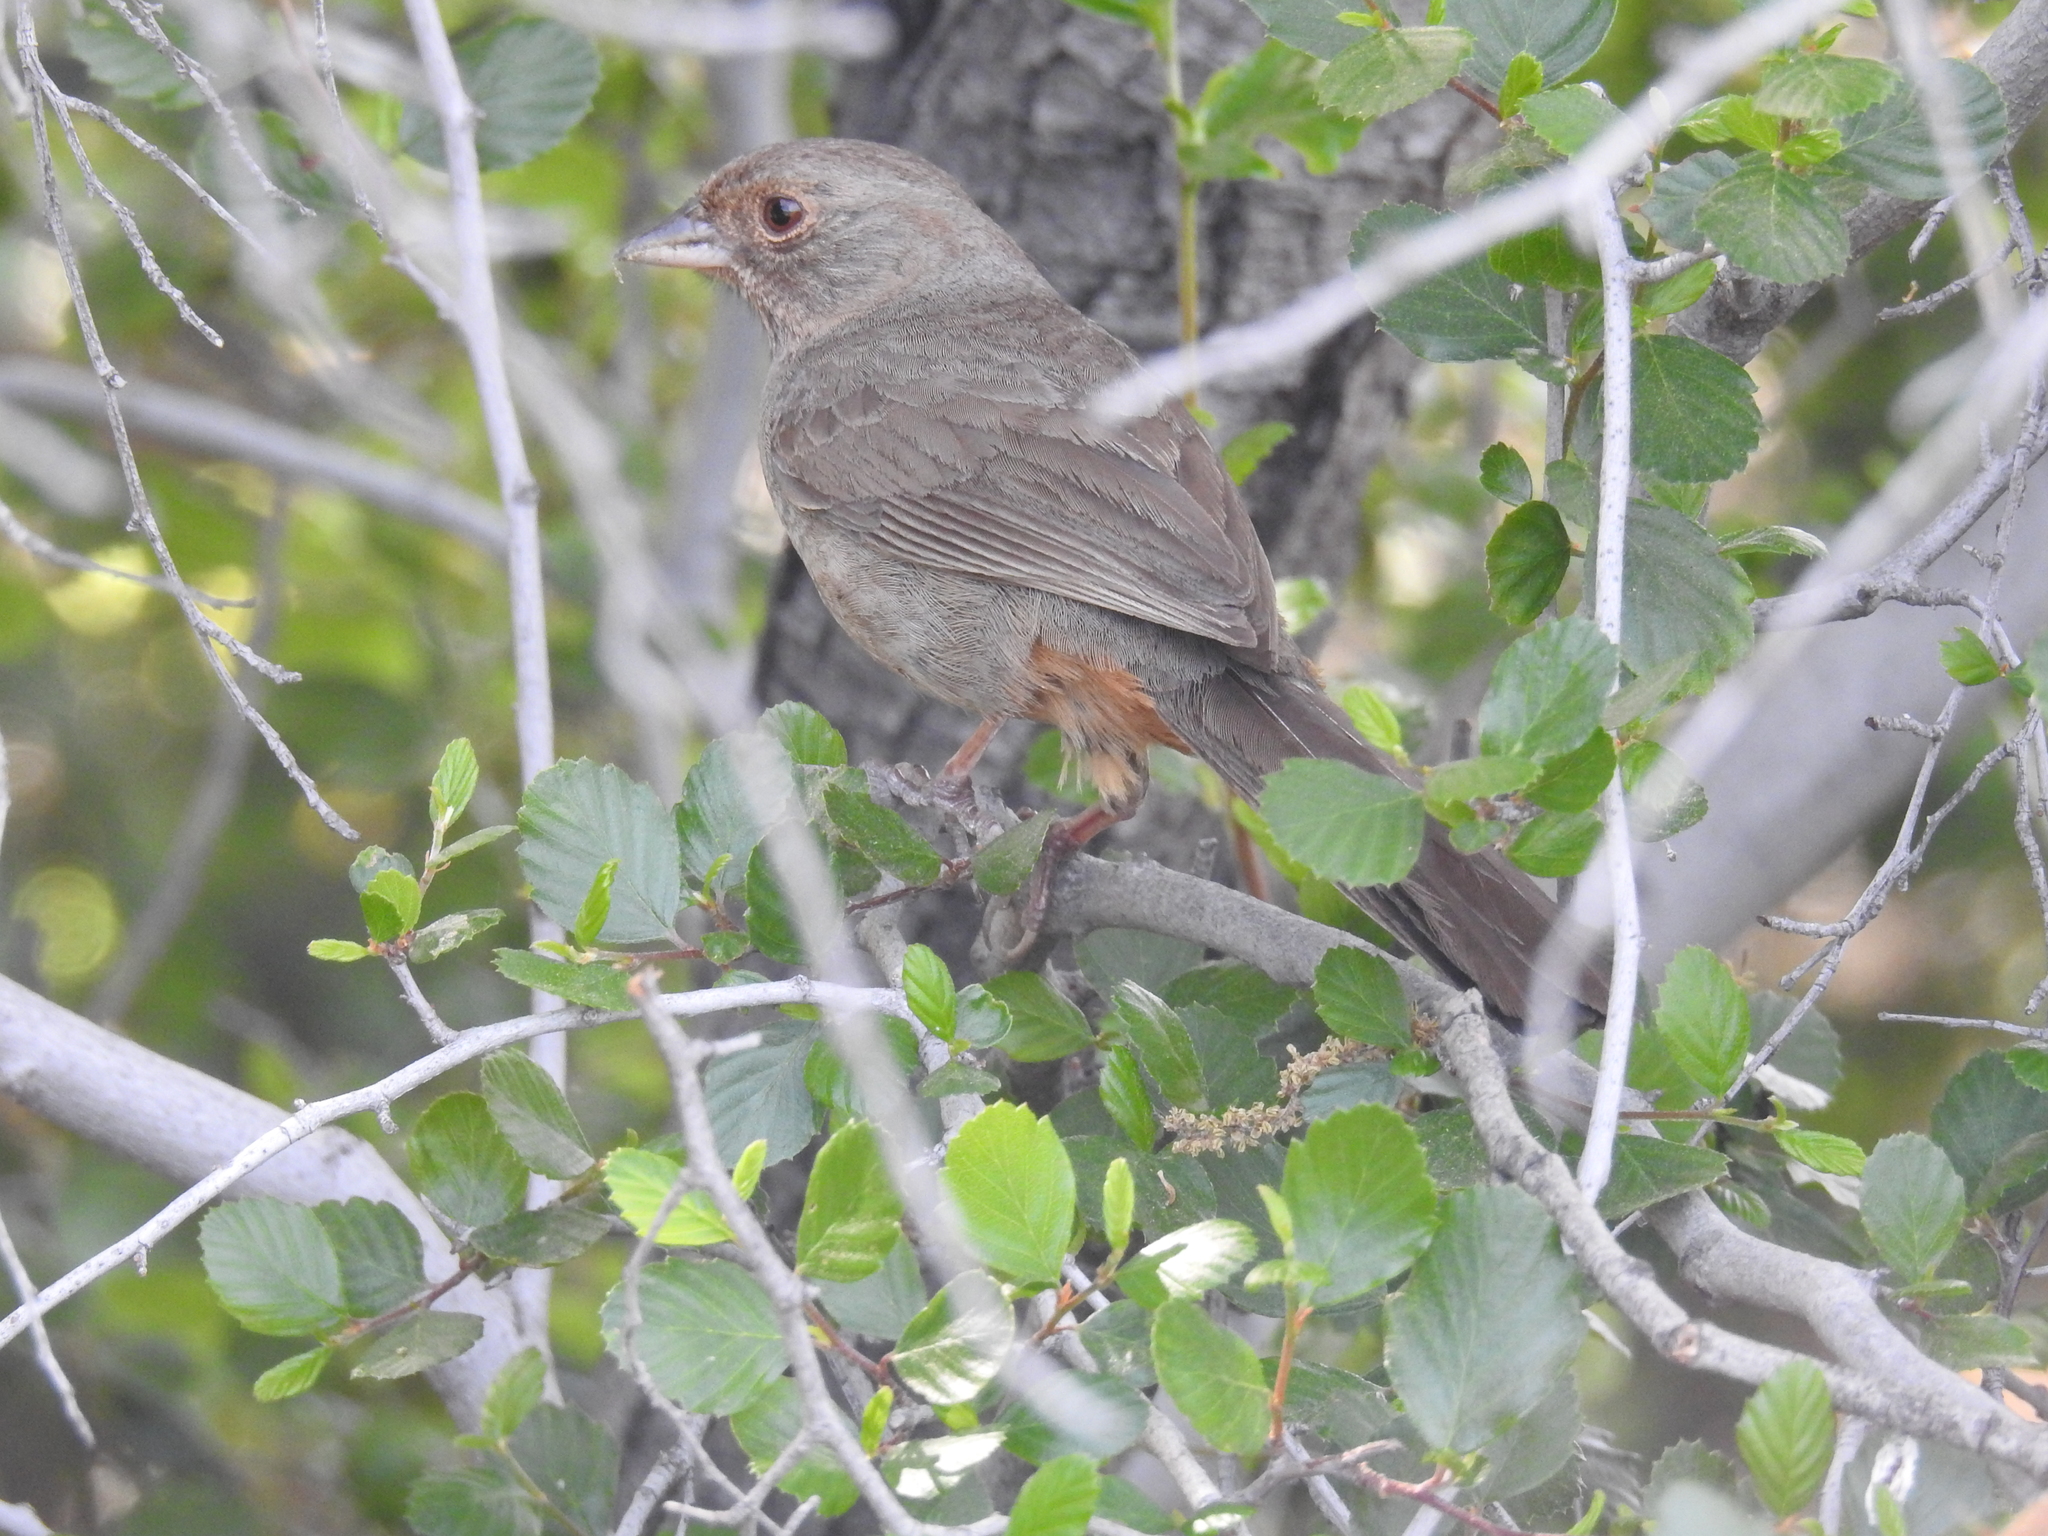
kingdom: Animalia
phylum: Chordata
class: Aves
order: Passeriformes
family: Passerellidae
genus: Melozone
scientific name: Melozone crissalis
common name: California towhee
